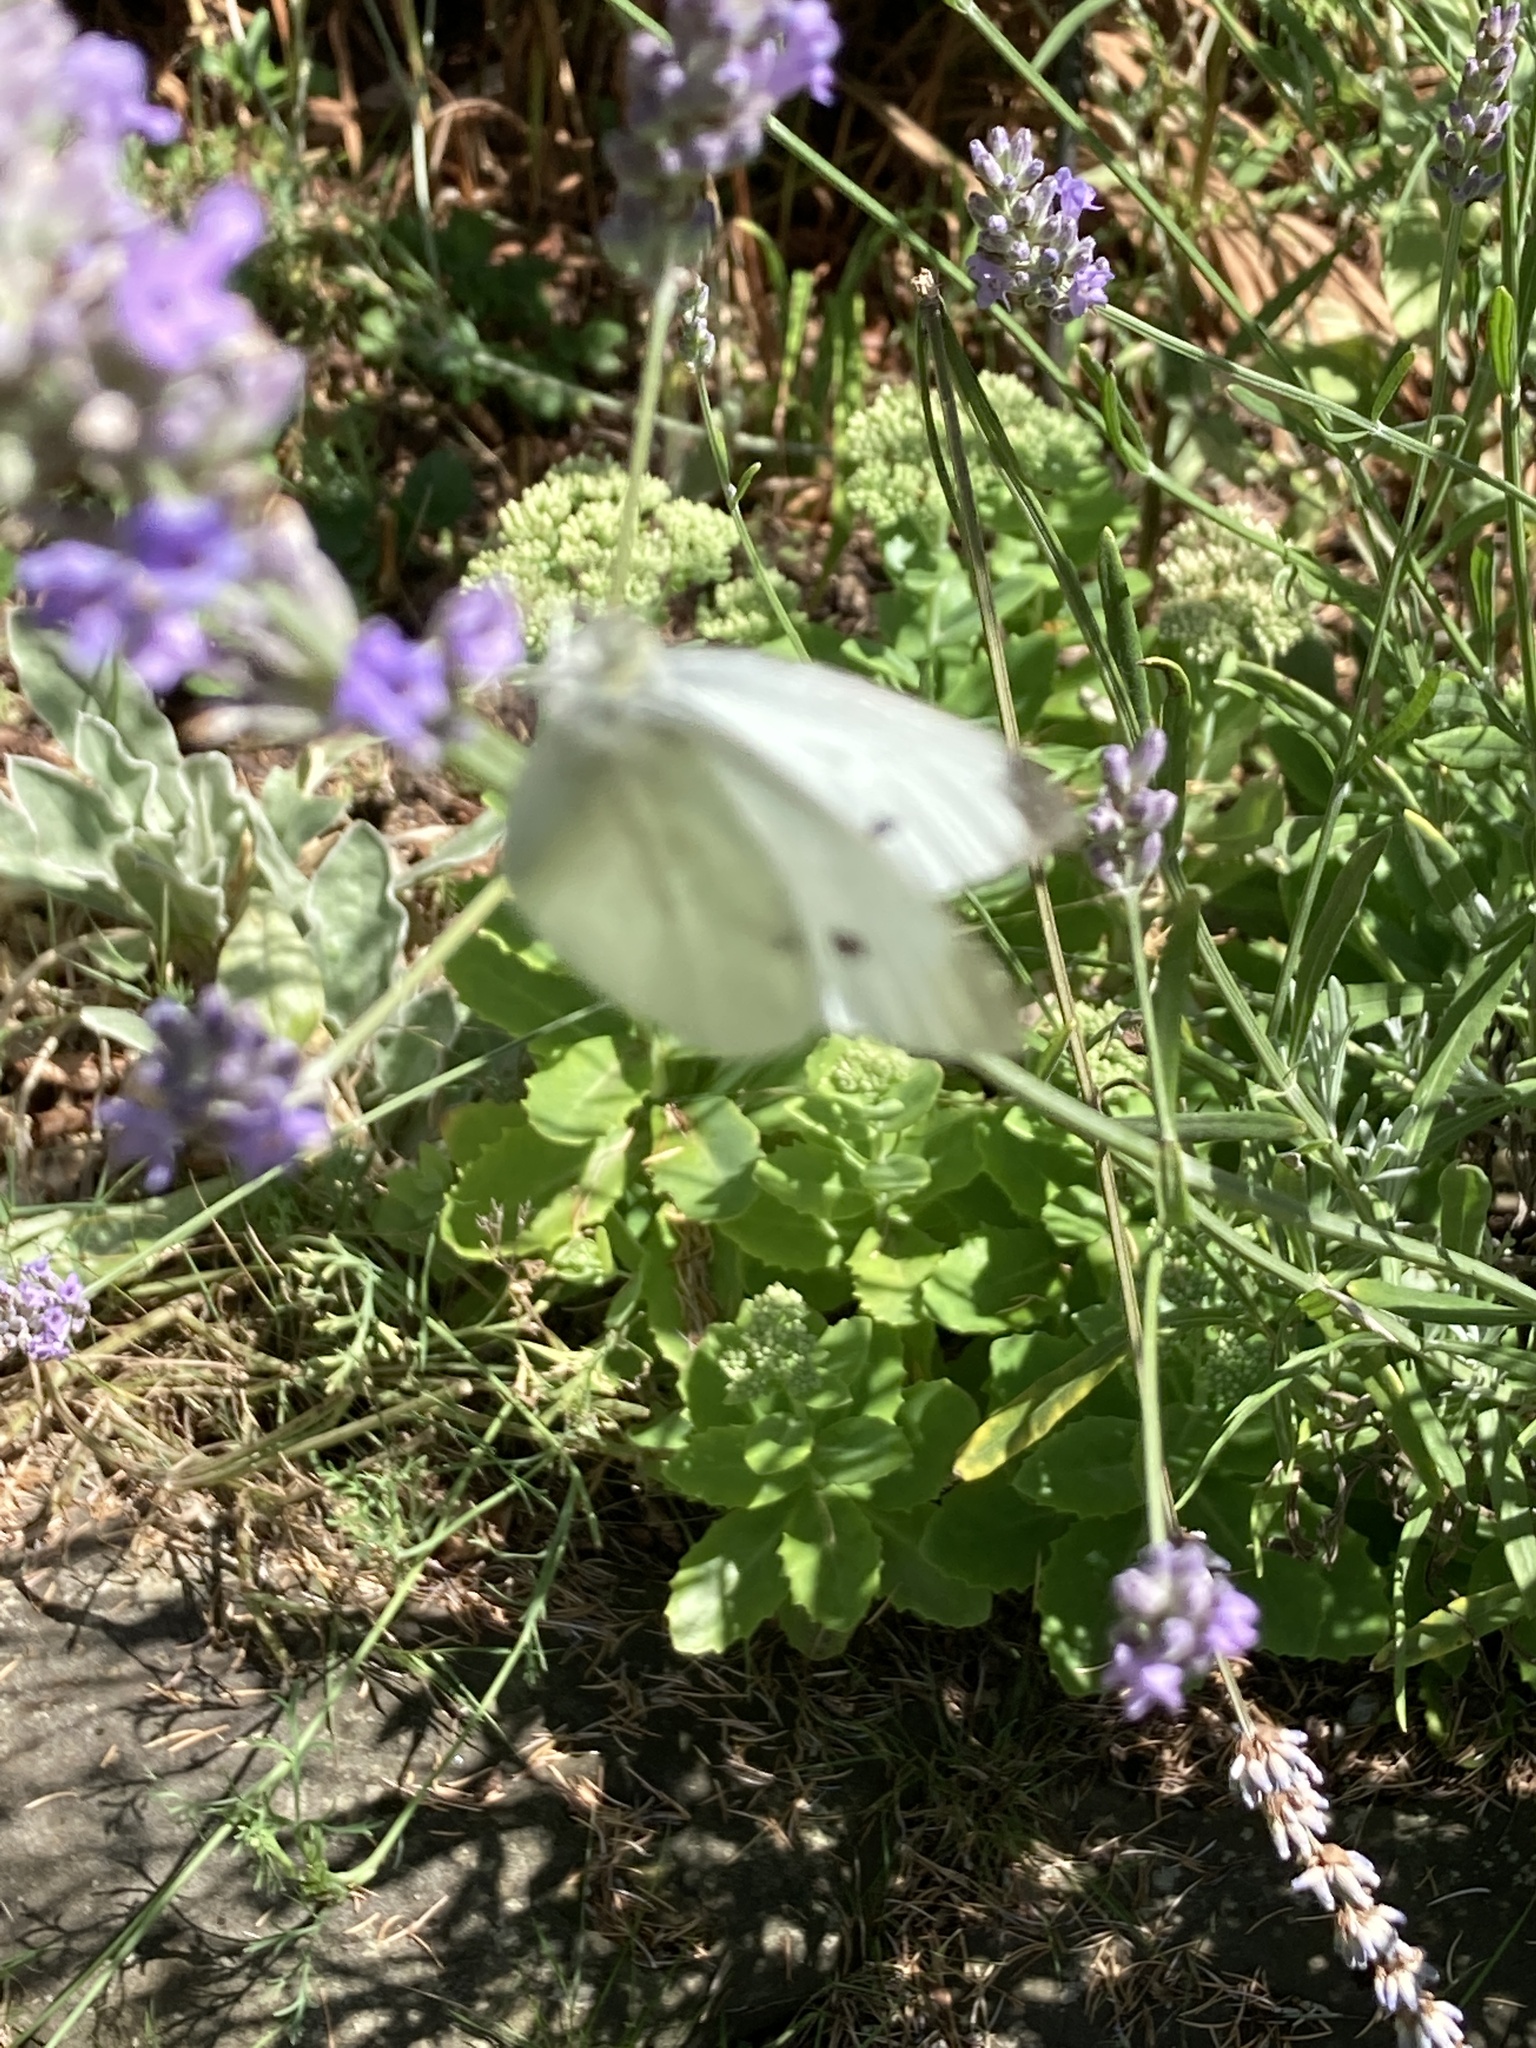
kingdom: Animalia
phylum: Arthropoda
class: Insecta
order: Lepidoptera
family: Pieridae
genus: Pieris
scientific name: Pieris rapae
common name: Small white
